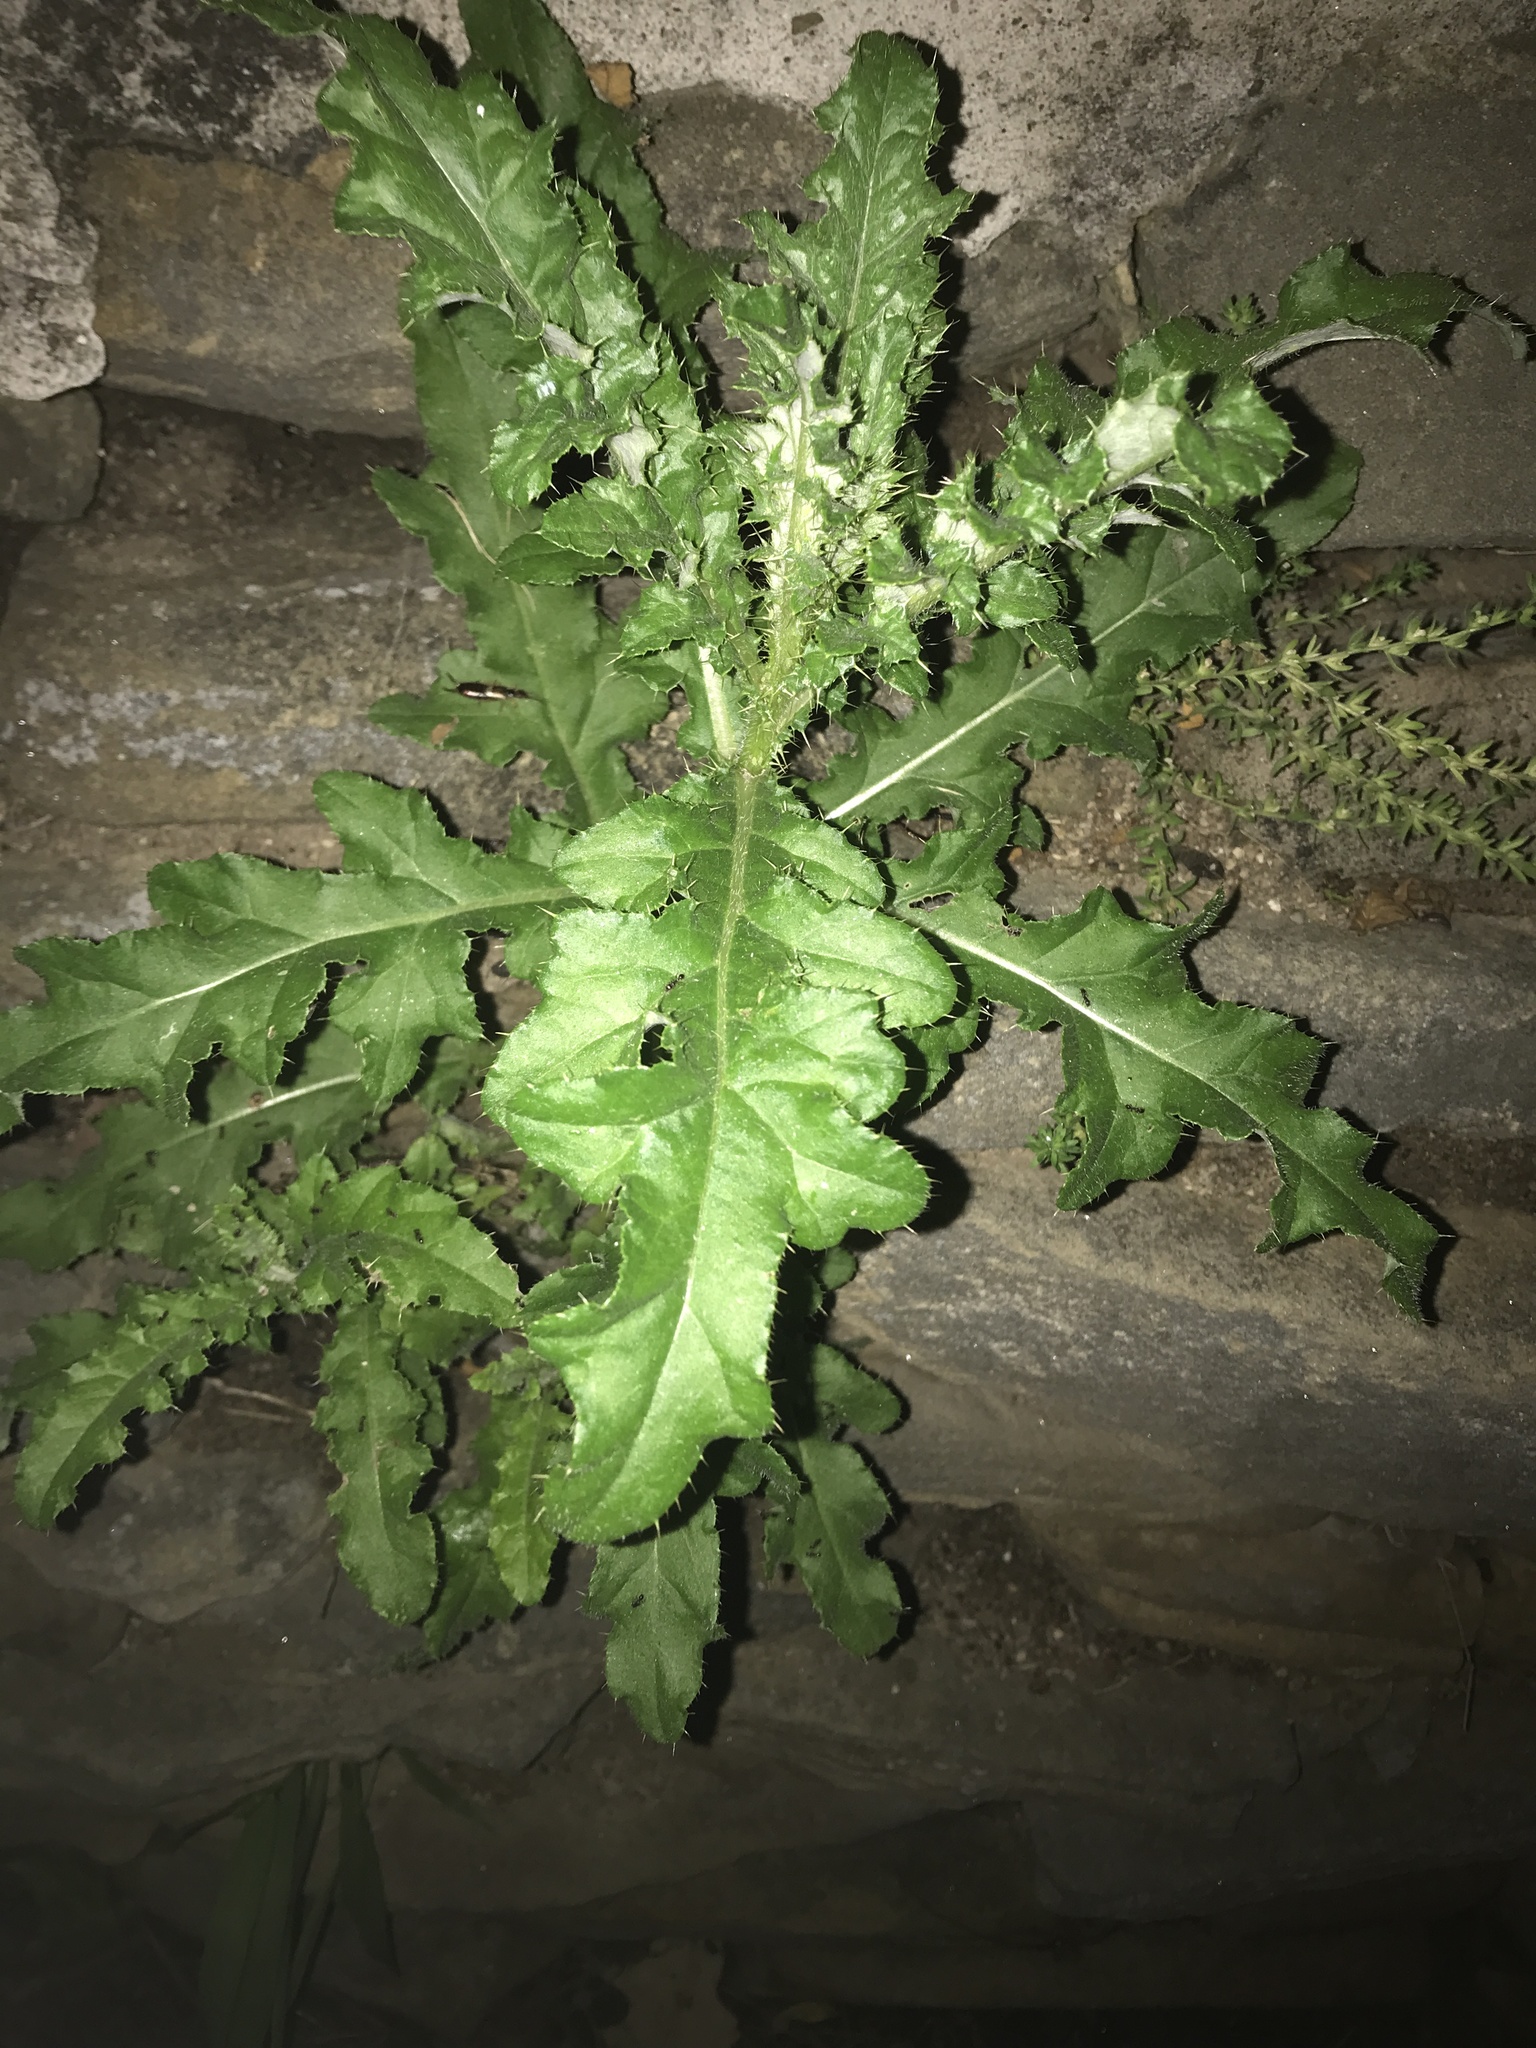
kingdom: Plantae
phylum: Tracheophyta
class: Magnoliopsida
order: Asterales
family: Asteraceae
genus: Cirsium
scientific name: Cirsium arvense
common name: Creeping thistle
